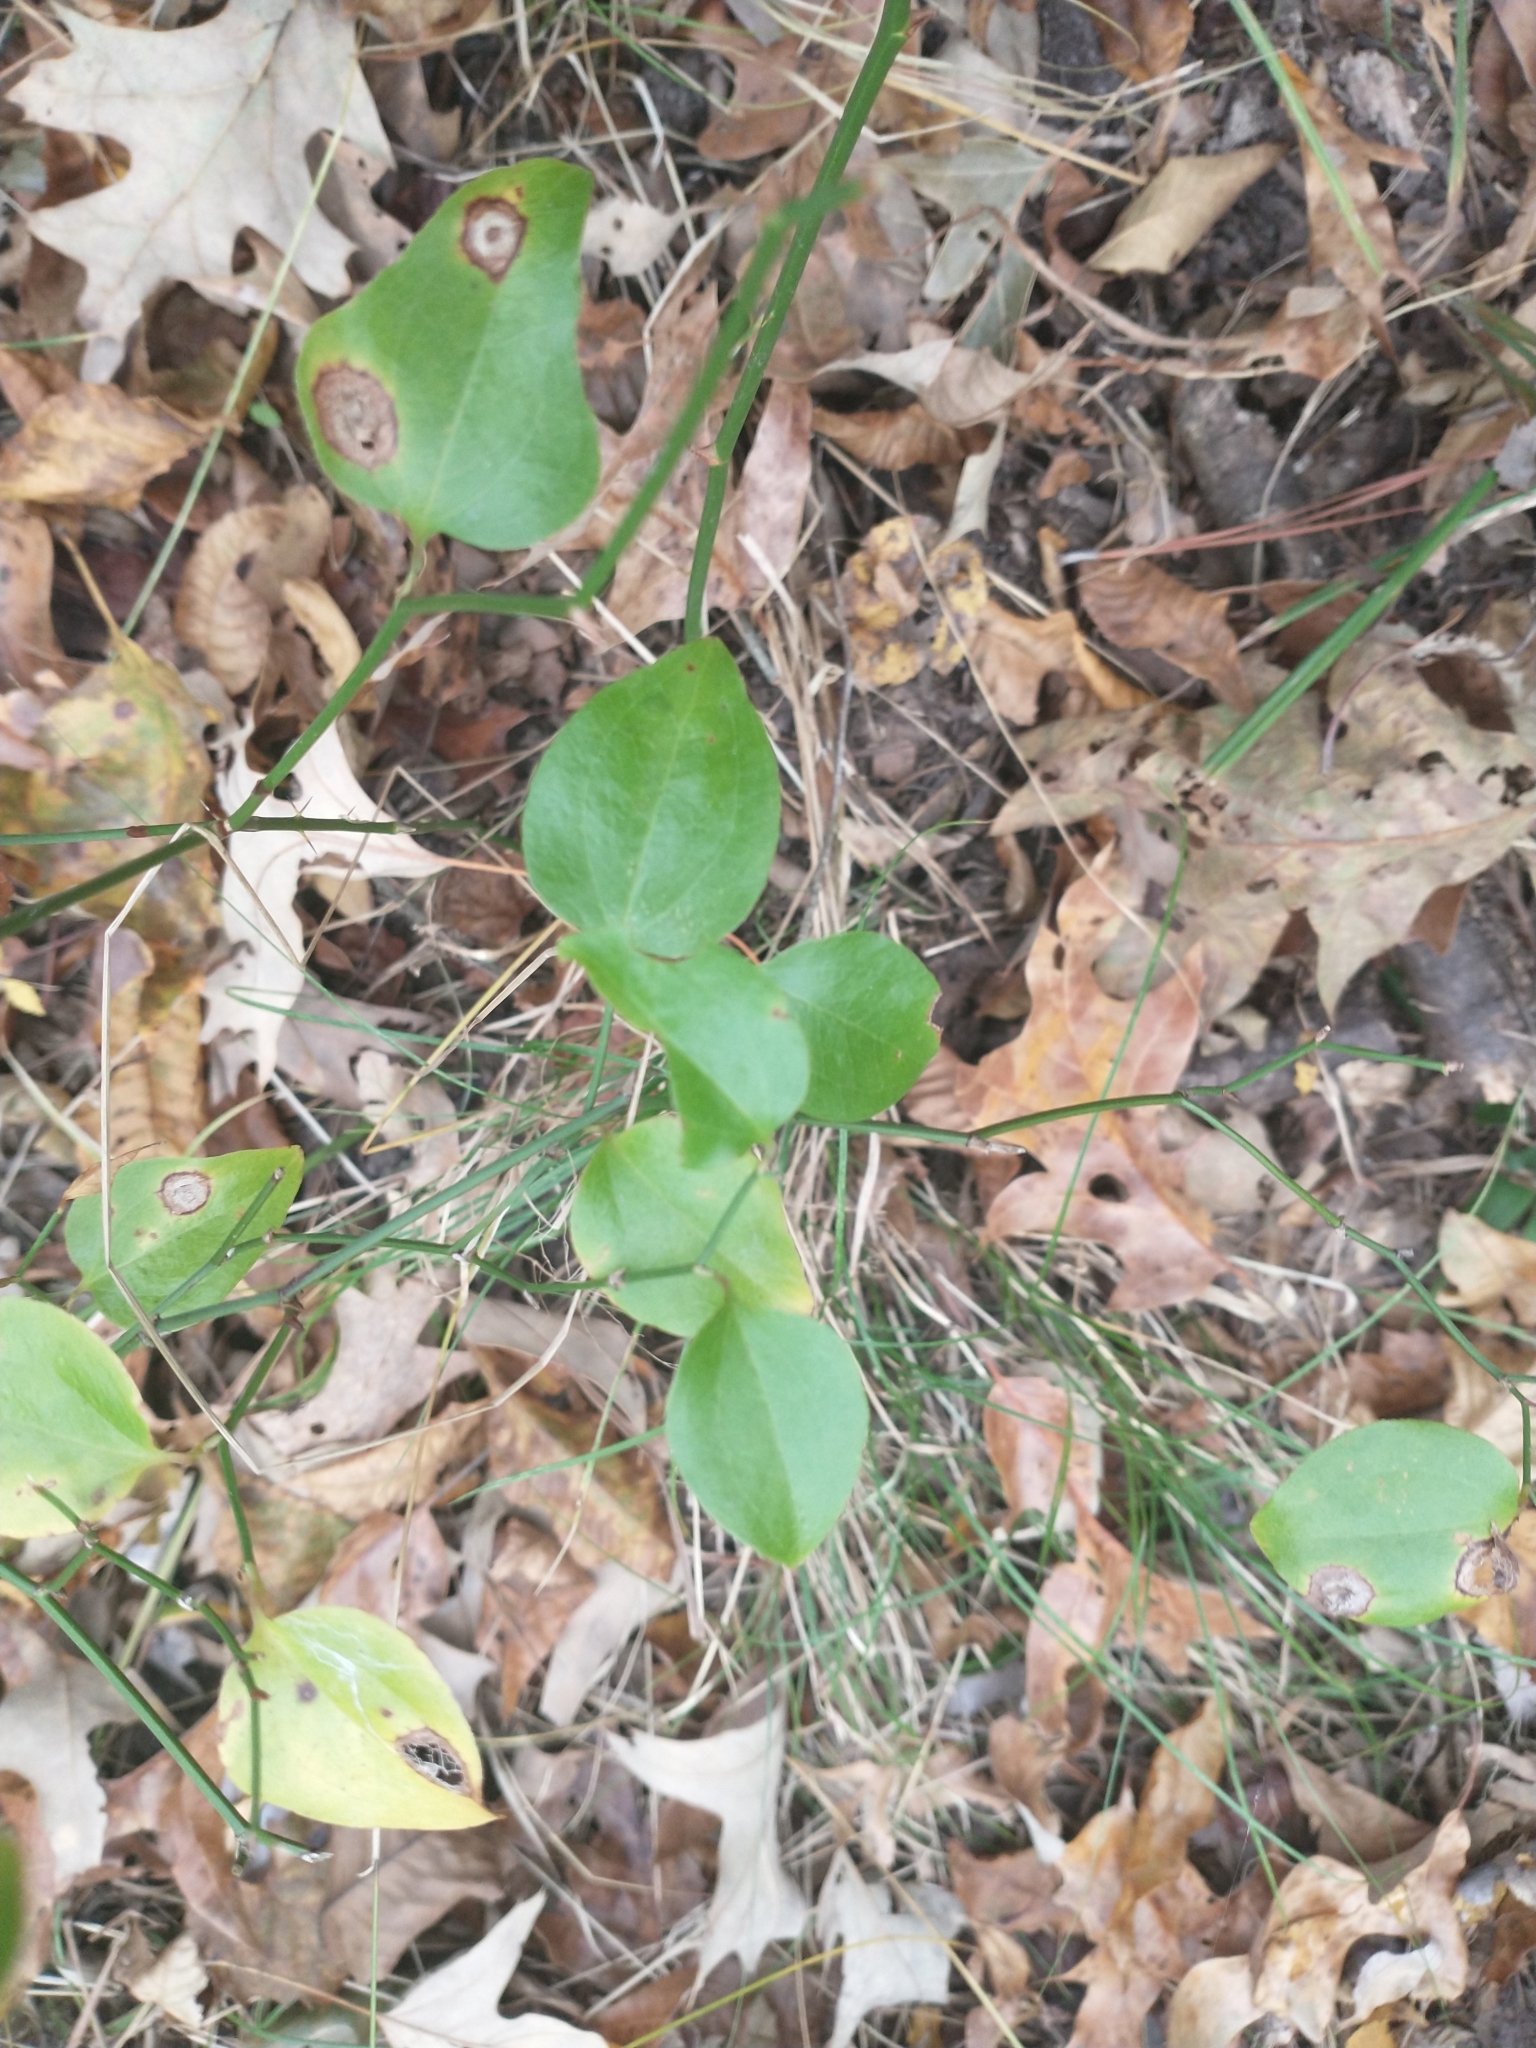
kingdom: Plantae
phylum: Tracheophyta
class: Liliopsida
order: Liliales
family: Smilacaceae
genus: Smilax
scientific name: Smilax rotundifolia
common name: Bullbriar
